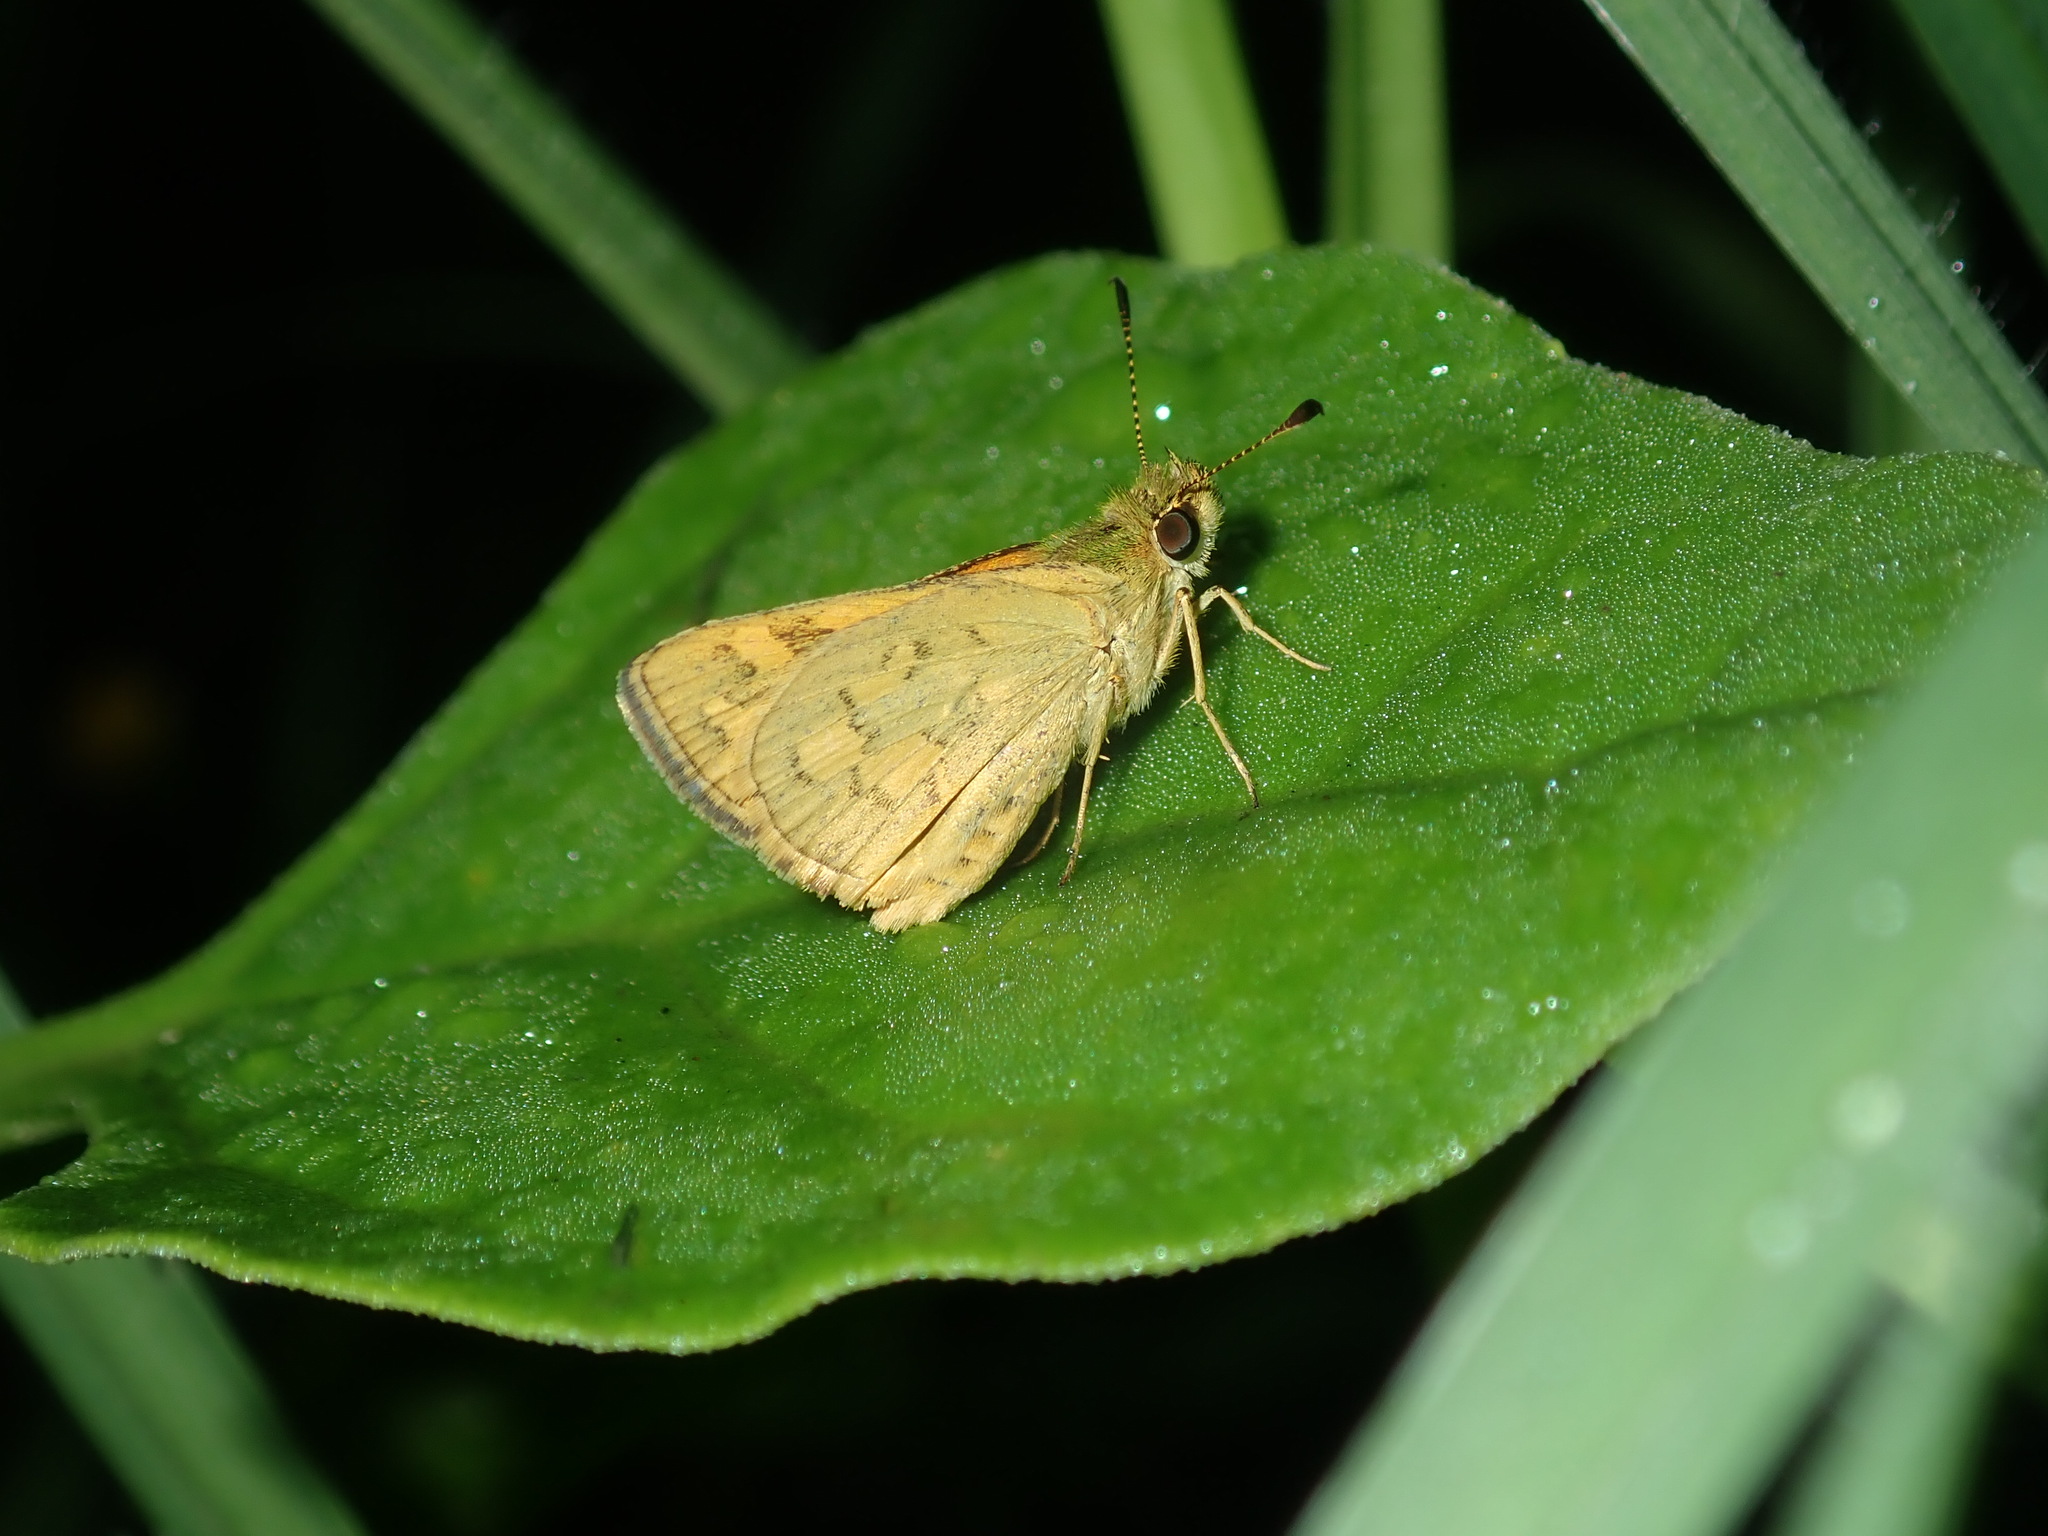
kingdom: Animalia
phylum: Arthropoda
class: Insecta
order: Lepidoptera
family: Hesperiidae
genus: Ocybadistes
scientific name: Ocybadistes walkeri
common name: Yellow-banded dart
